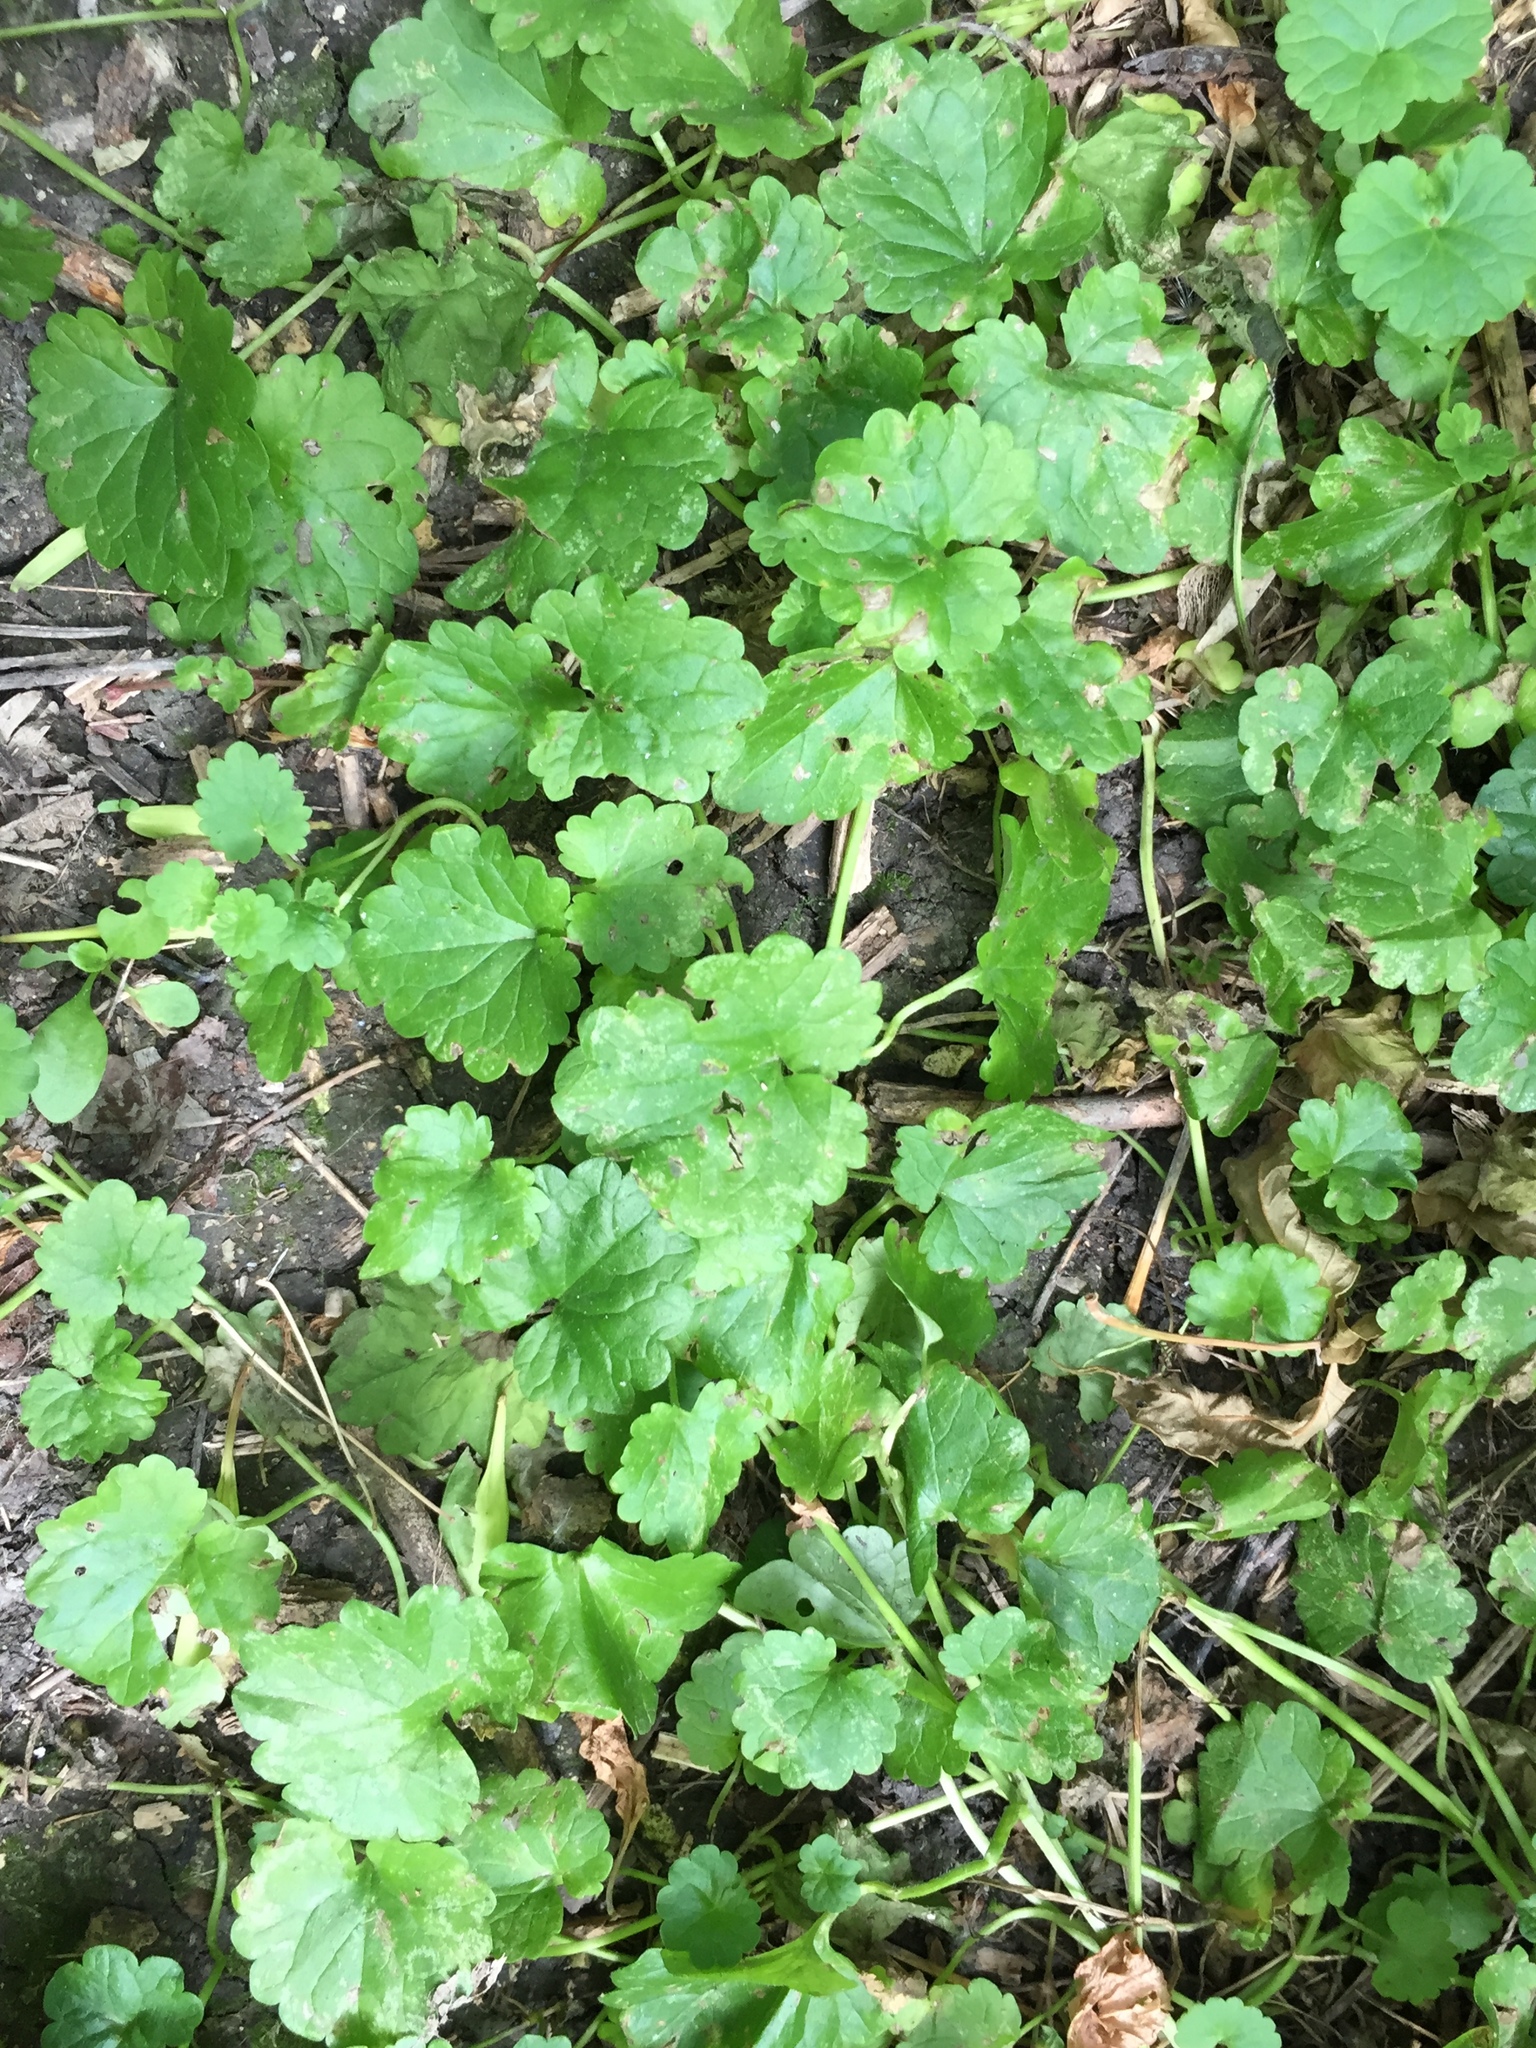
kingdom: Plantae
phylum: Tracheophyta
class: Magnoliopsida
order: Lamiales
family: Lamiaceae
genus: Glechoma
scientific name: Glechoma hederacea
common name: Ground ivy
